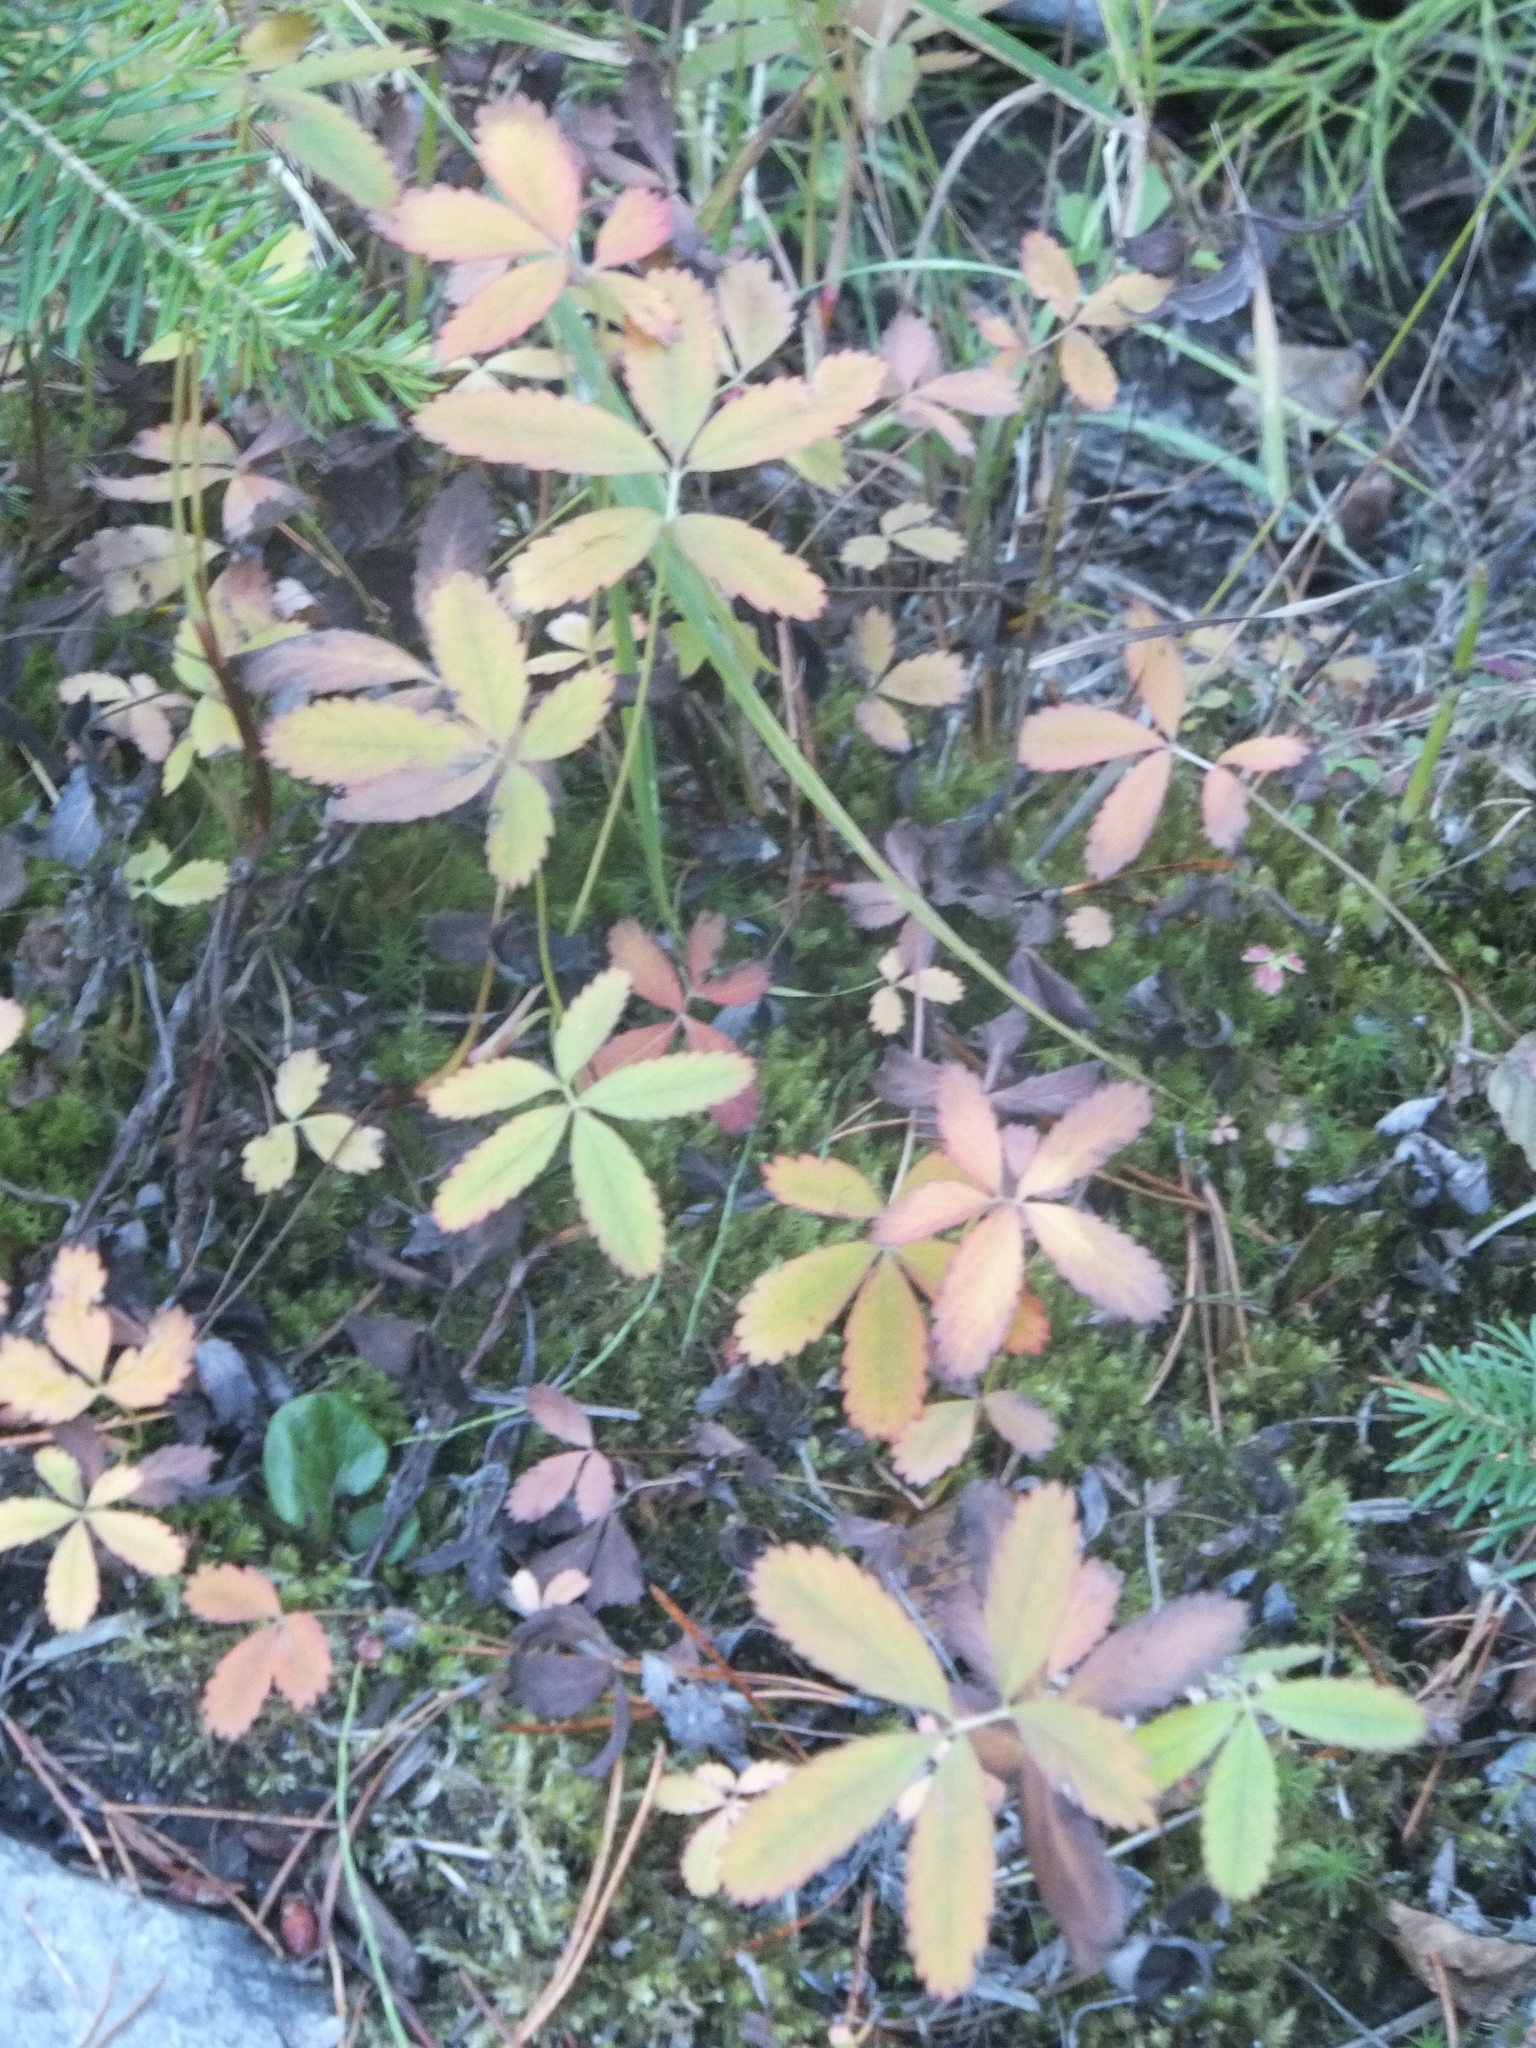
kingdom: Plantae
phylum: Tracheophyta
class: Magnoliopsida
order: Rosales
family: Rosaceae
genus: Comarum
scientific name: Comarum palustre
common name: Marsh cinquefoil
